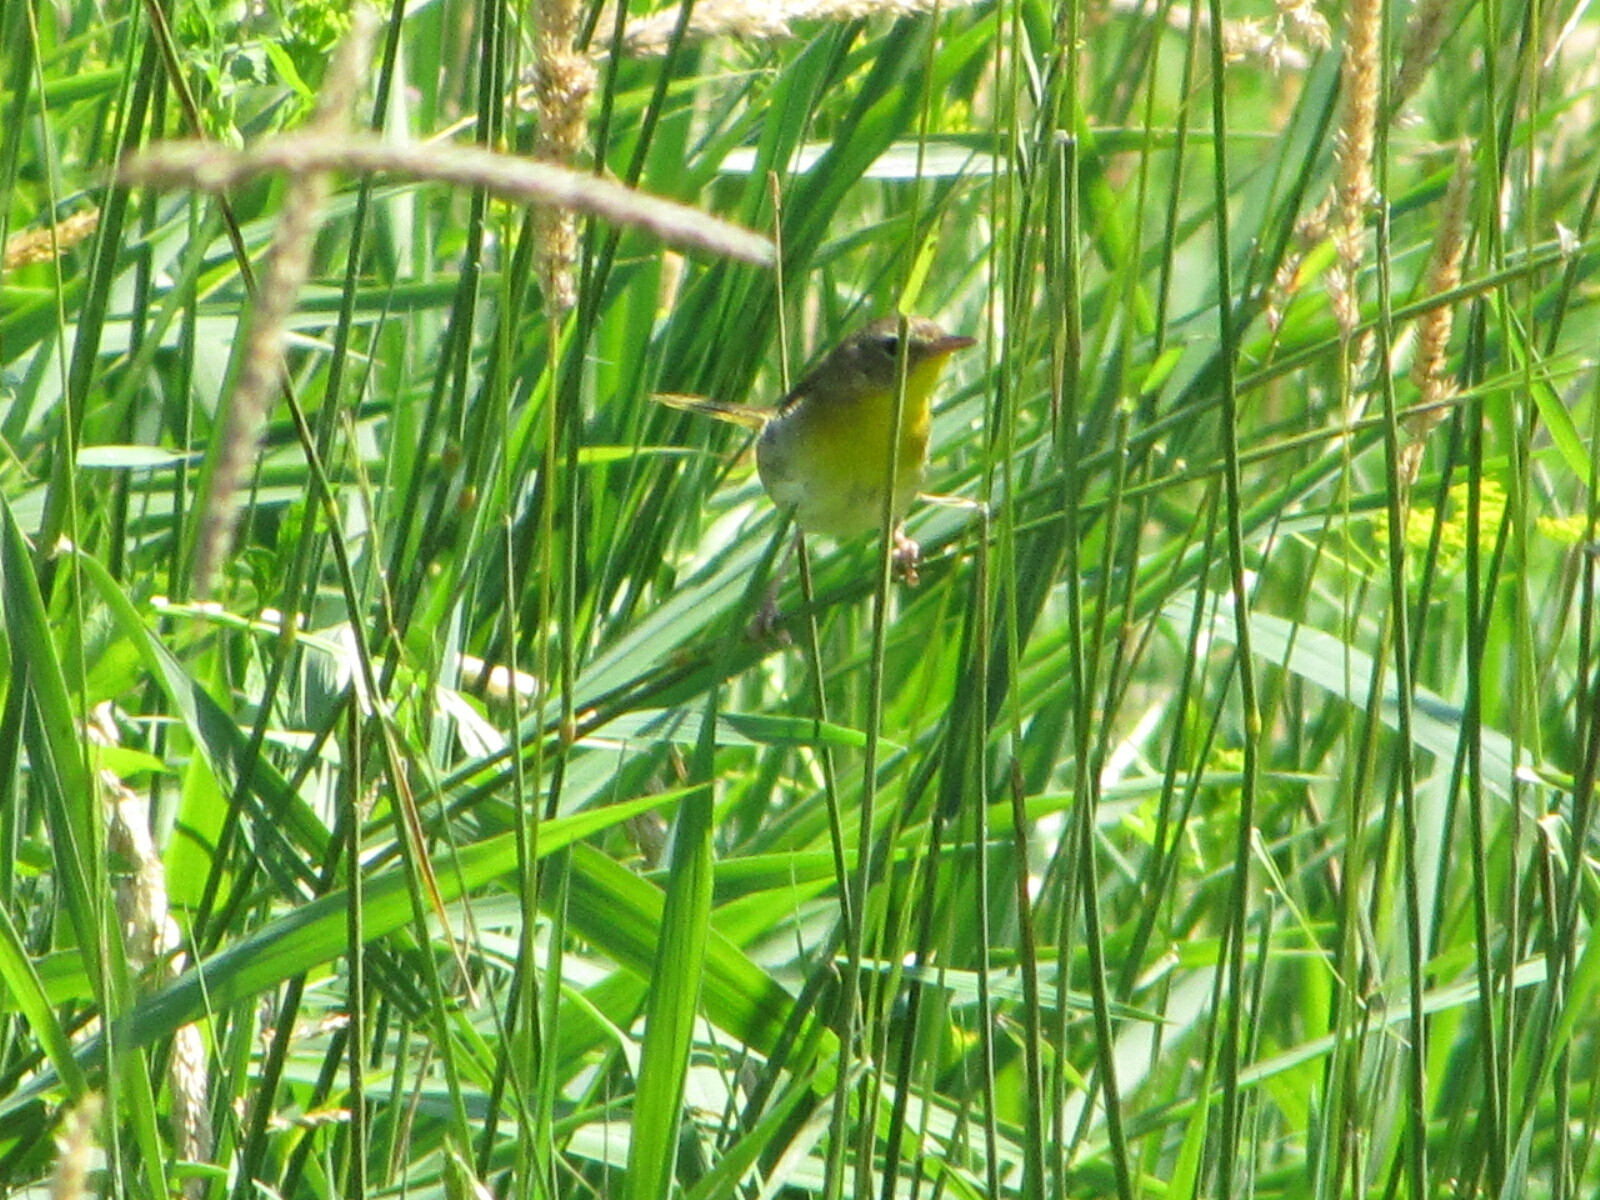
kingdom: Animalia
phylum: Chordata
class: Aves
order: Passeriformes
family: Parulidae
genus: Geothlypis
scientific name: Geothlypis trichas
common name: Common yellowthroat
